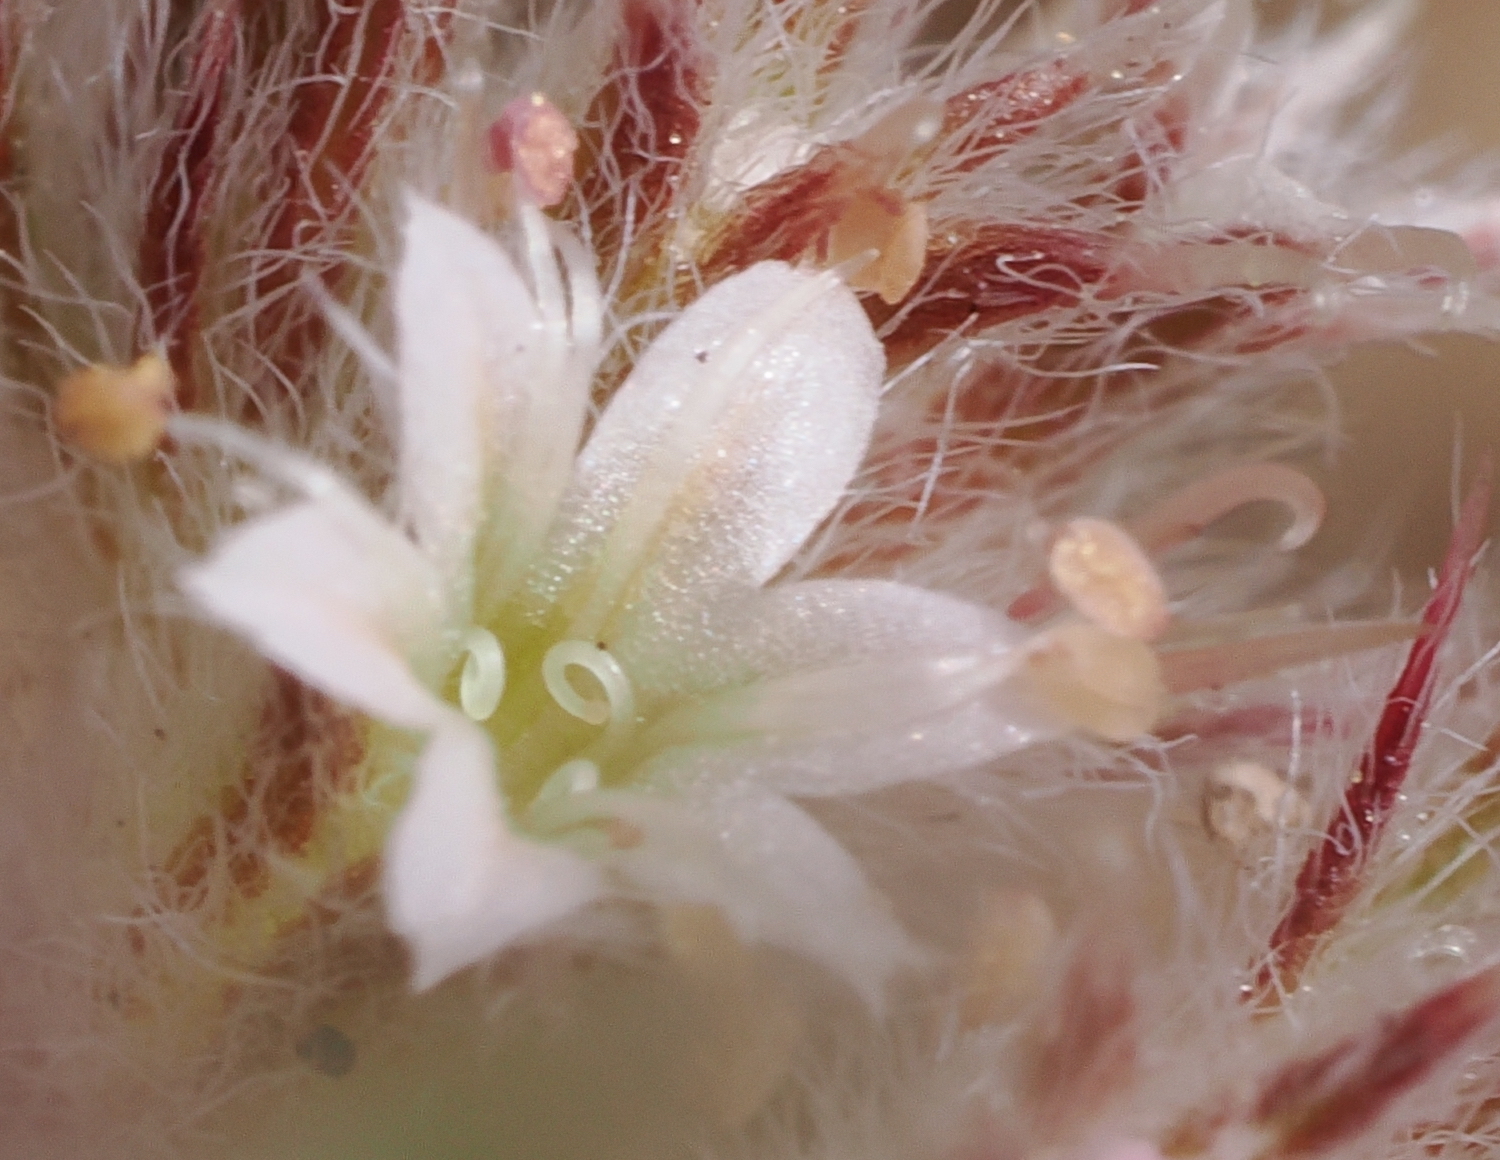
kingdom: Plantae
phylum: Tracheophyta
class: Magnoliopsida
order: Caryophyllales
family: Polygonaceae
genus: Chorizanthe
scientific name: Chorizanthe pungens
